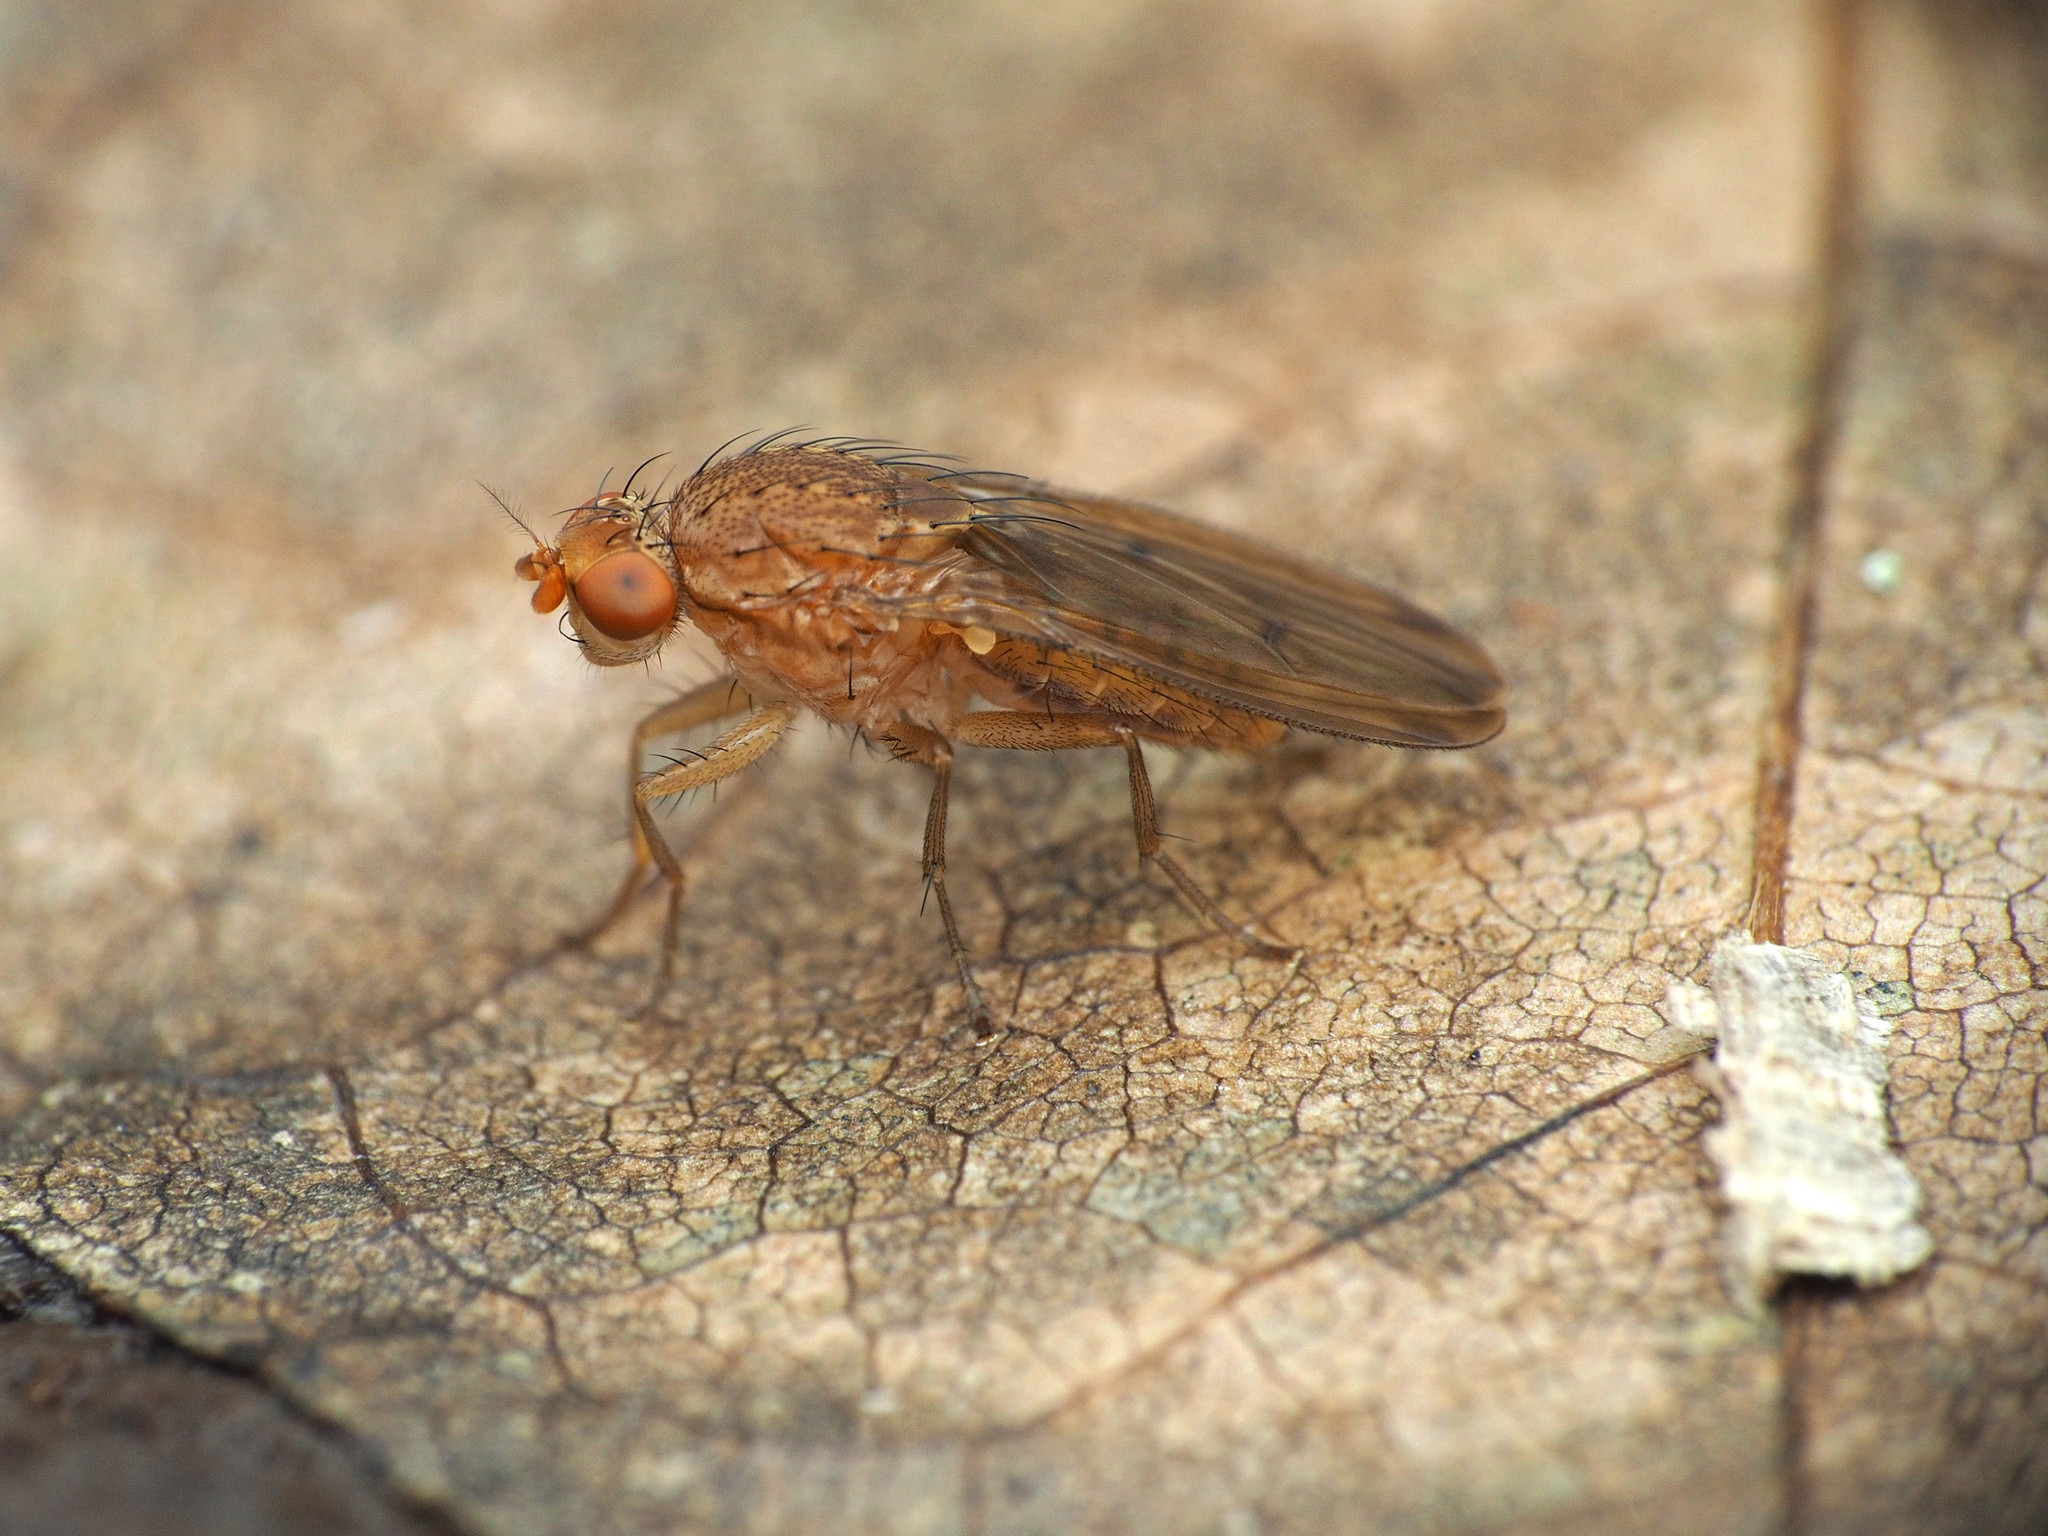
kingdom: Animalia
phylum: Arthropoda
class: Insecta
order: Diptera
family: Heleomyzidae
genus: Suillia
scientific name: Suillia plumata
